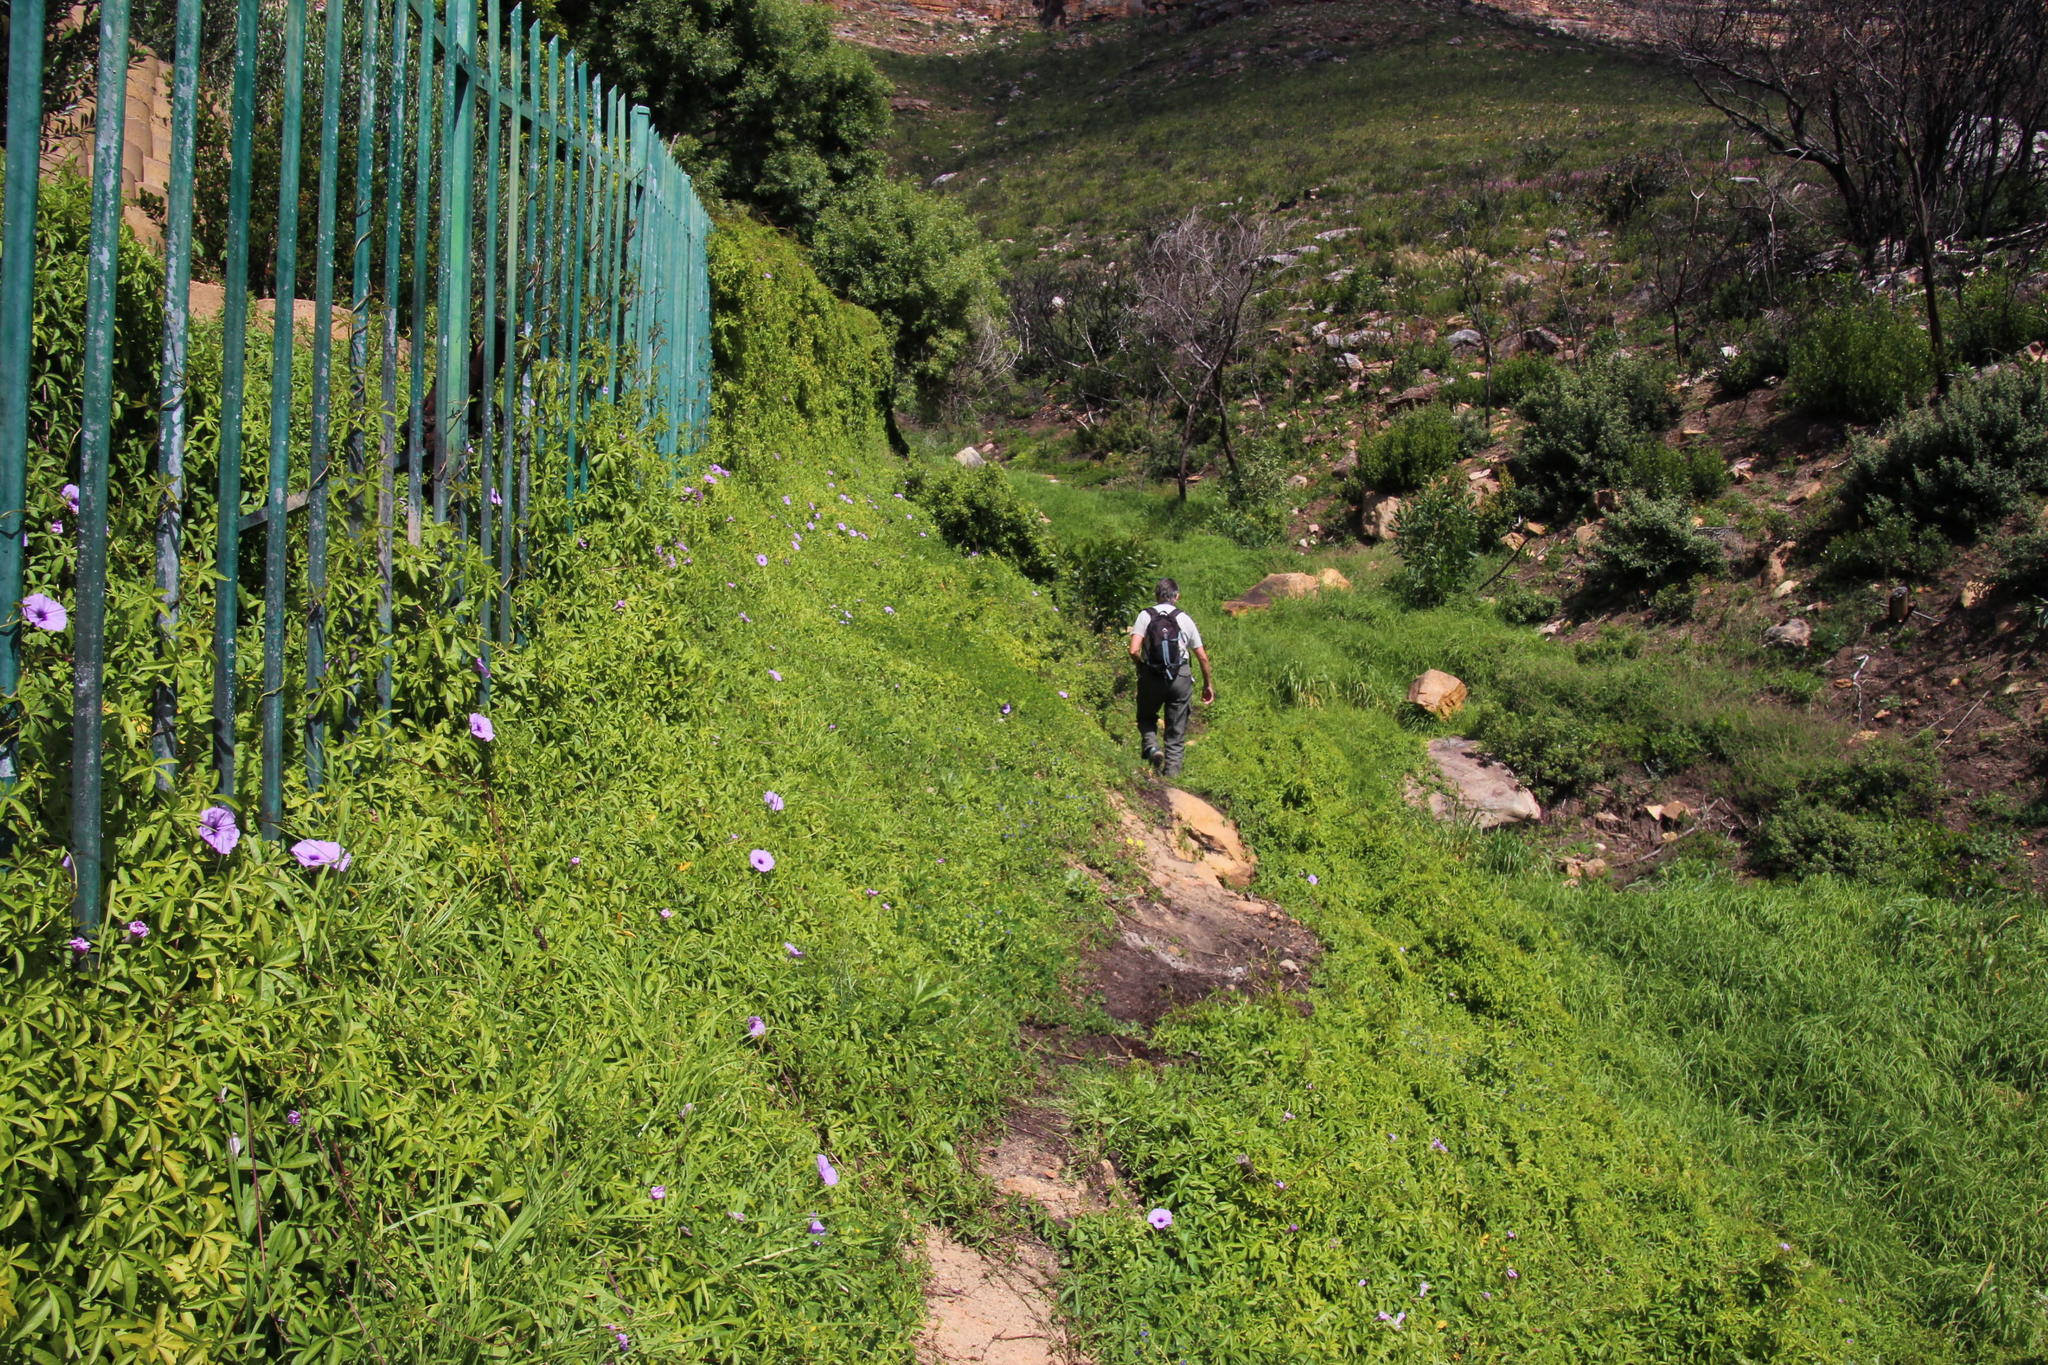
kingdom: Plantae
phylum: Tracheophyta
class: Magnoliopsida
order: Solanales
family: Convolvulaceae
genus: Ipomoea
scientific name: Ipomoea cairica
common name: Mile a minute vine
